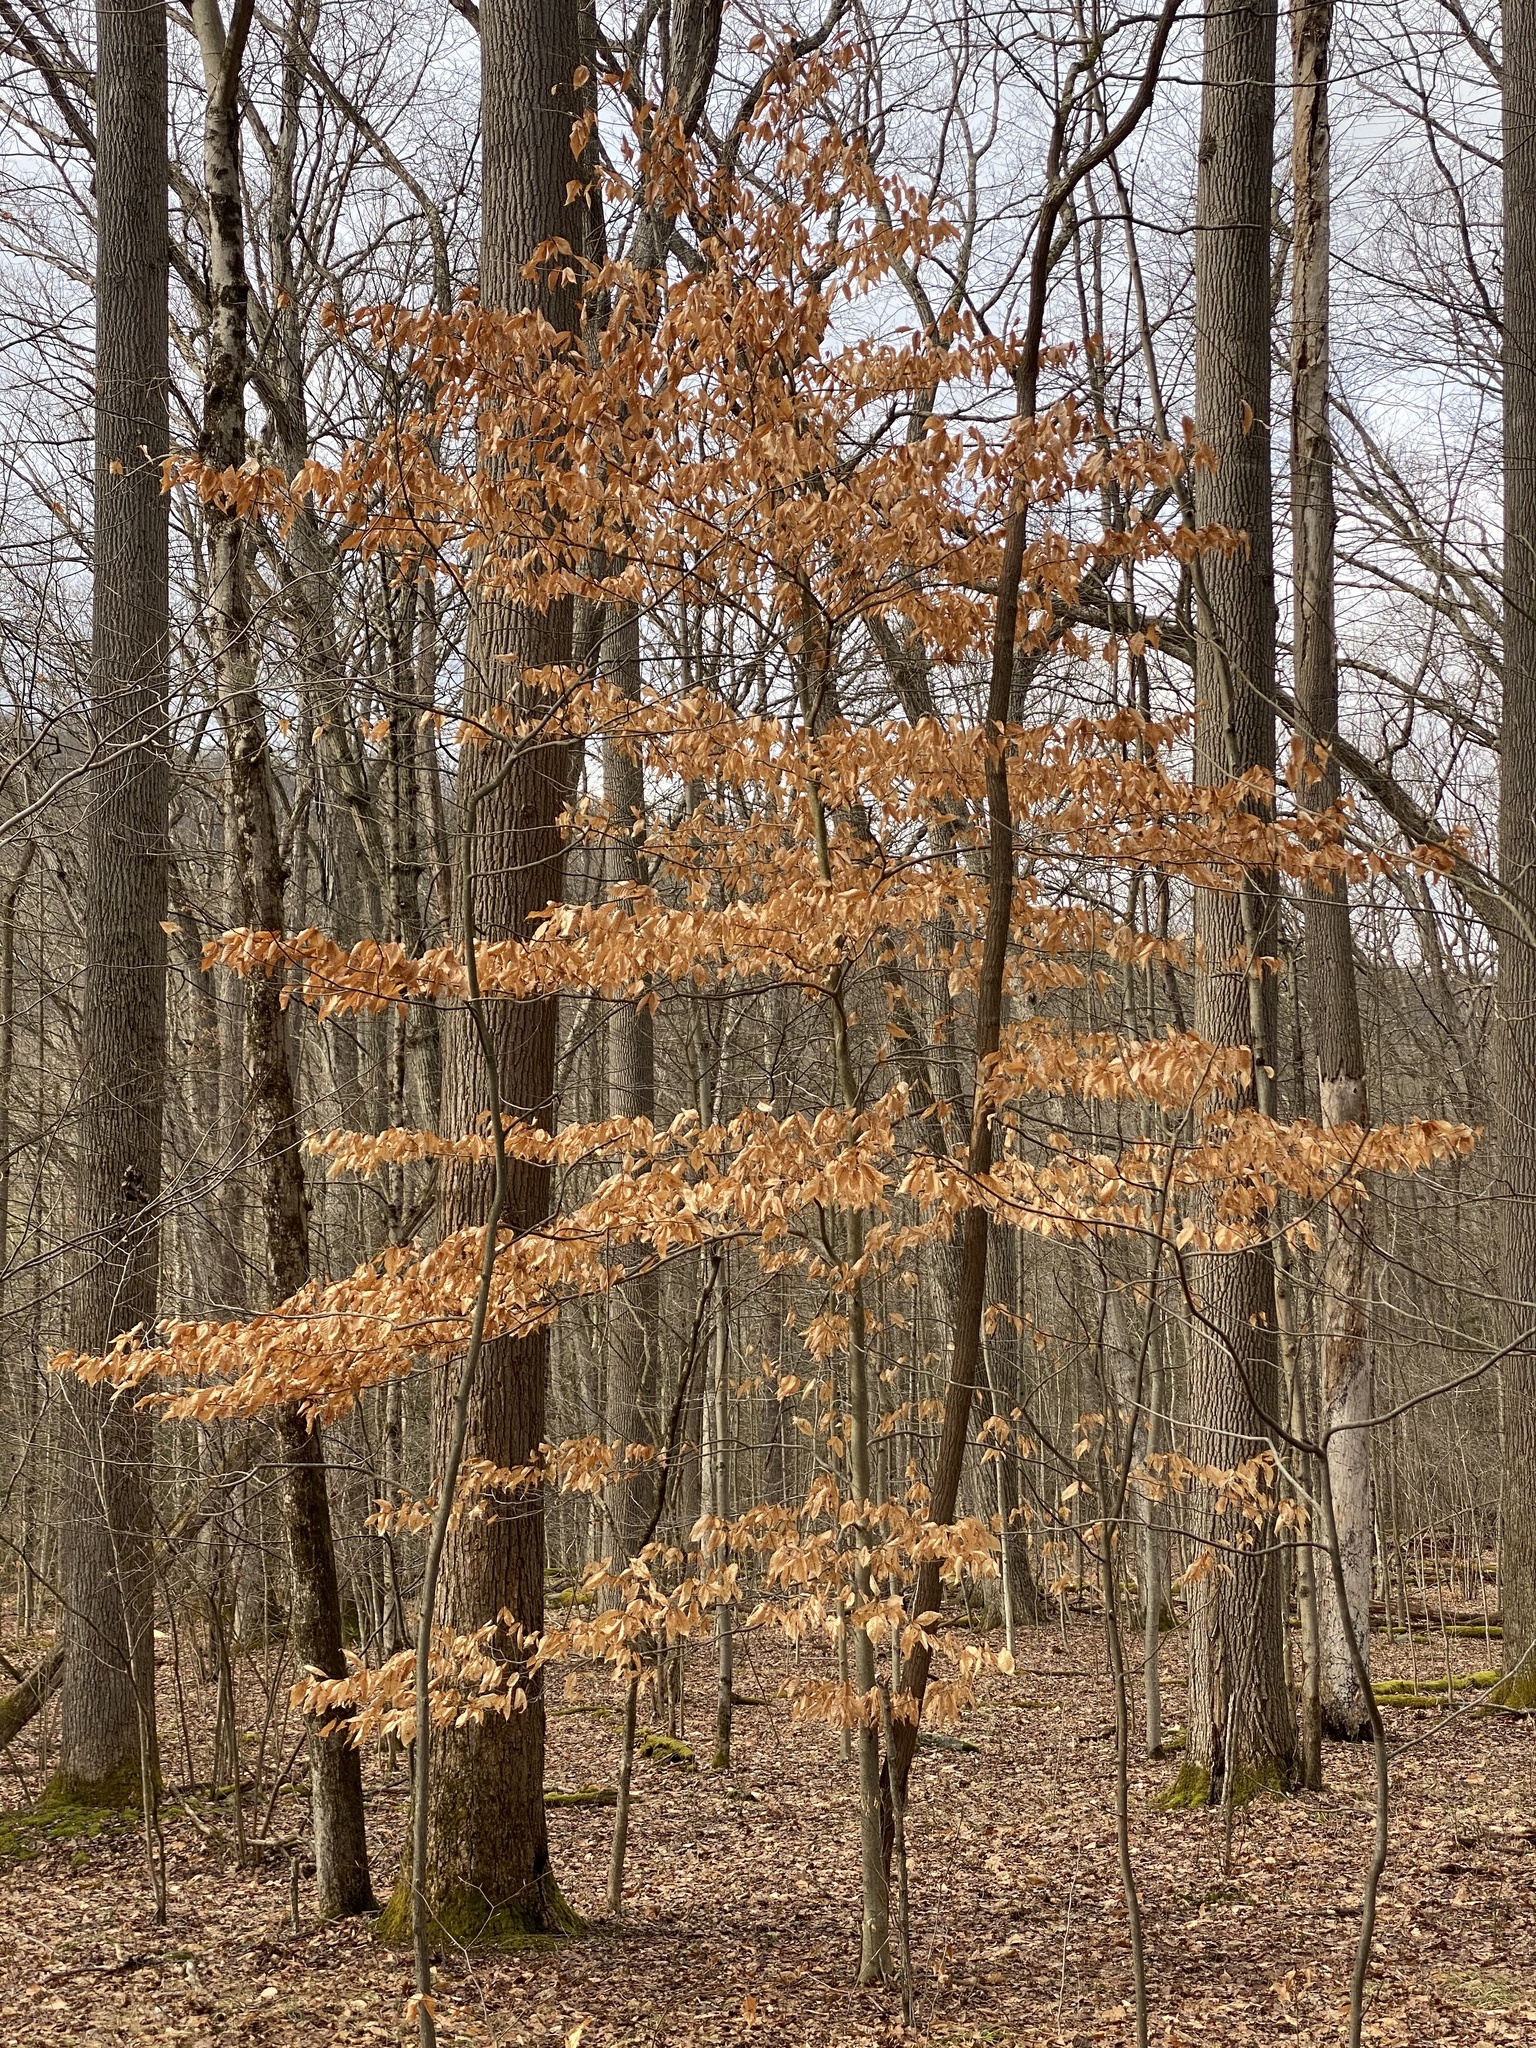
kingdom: Plantae
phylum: Tracheophyta
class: Magnoliopsida
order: Fagales
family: Fagaceae
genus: Fagus
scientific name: Fagus grandifolia
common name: American beech
